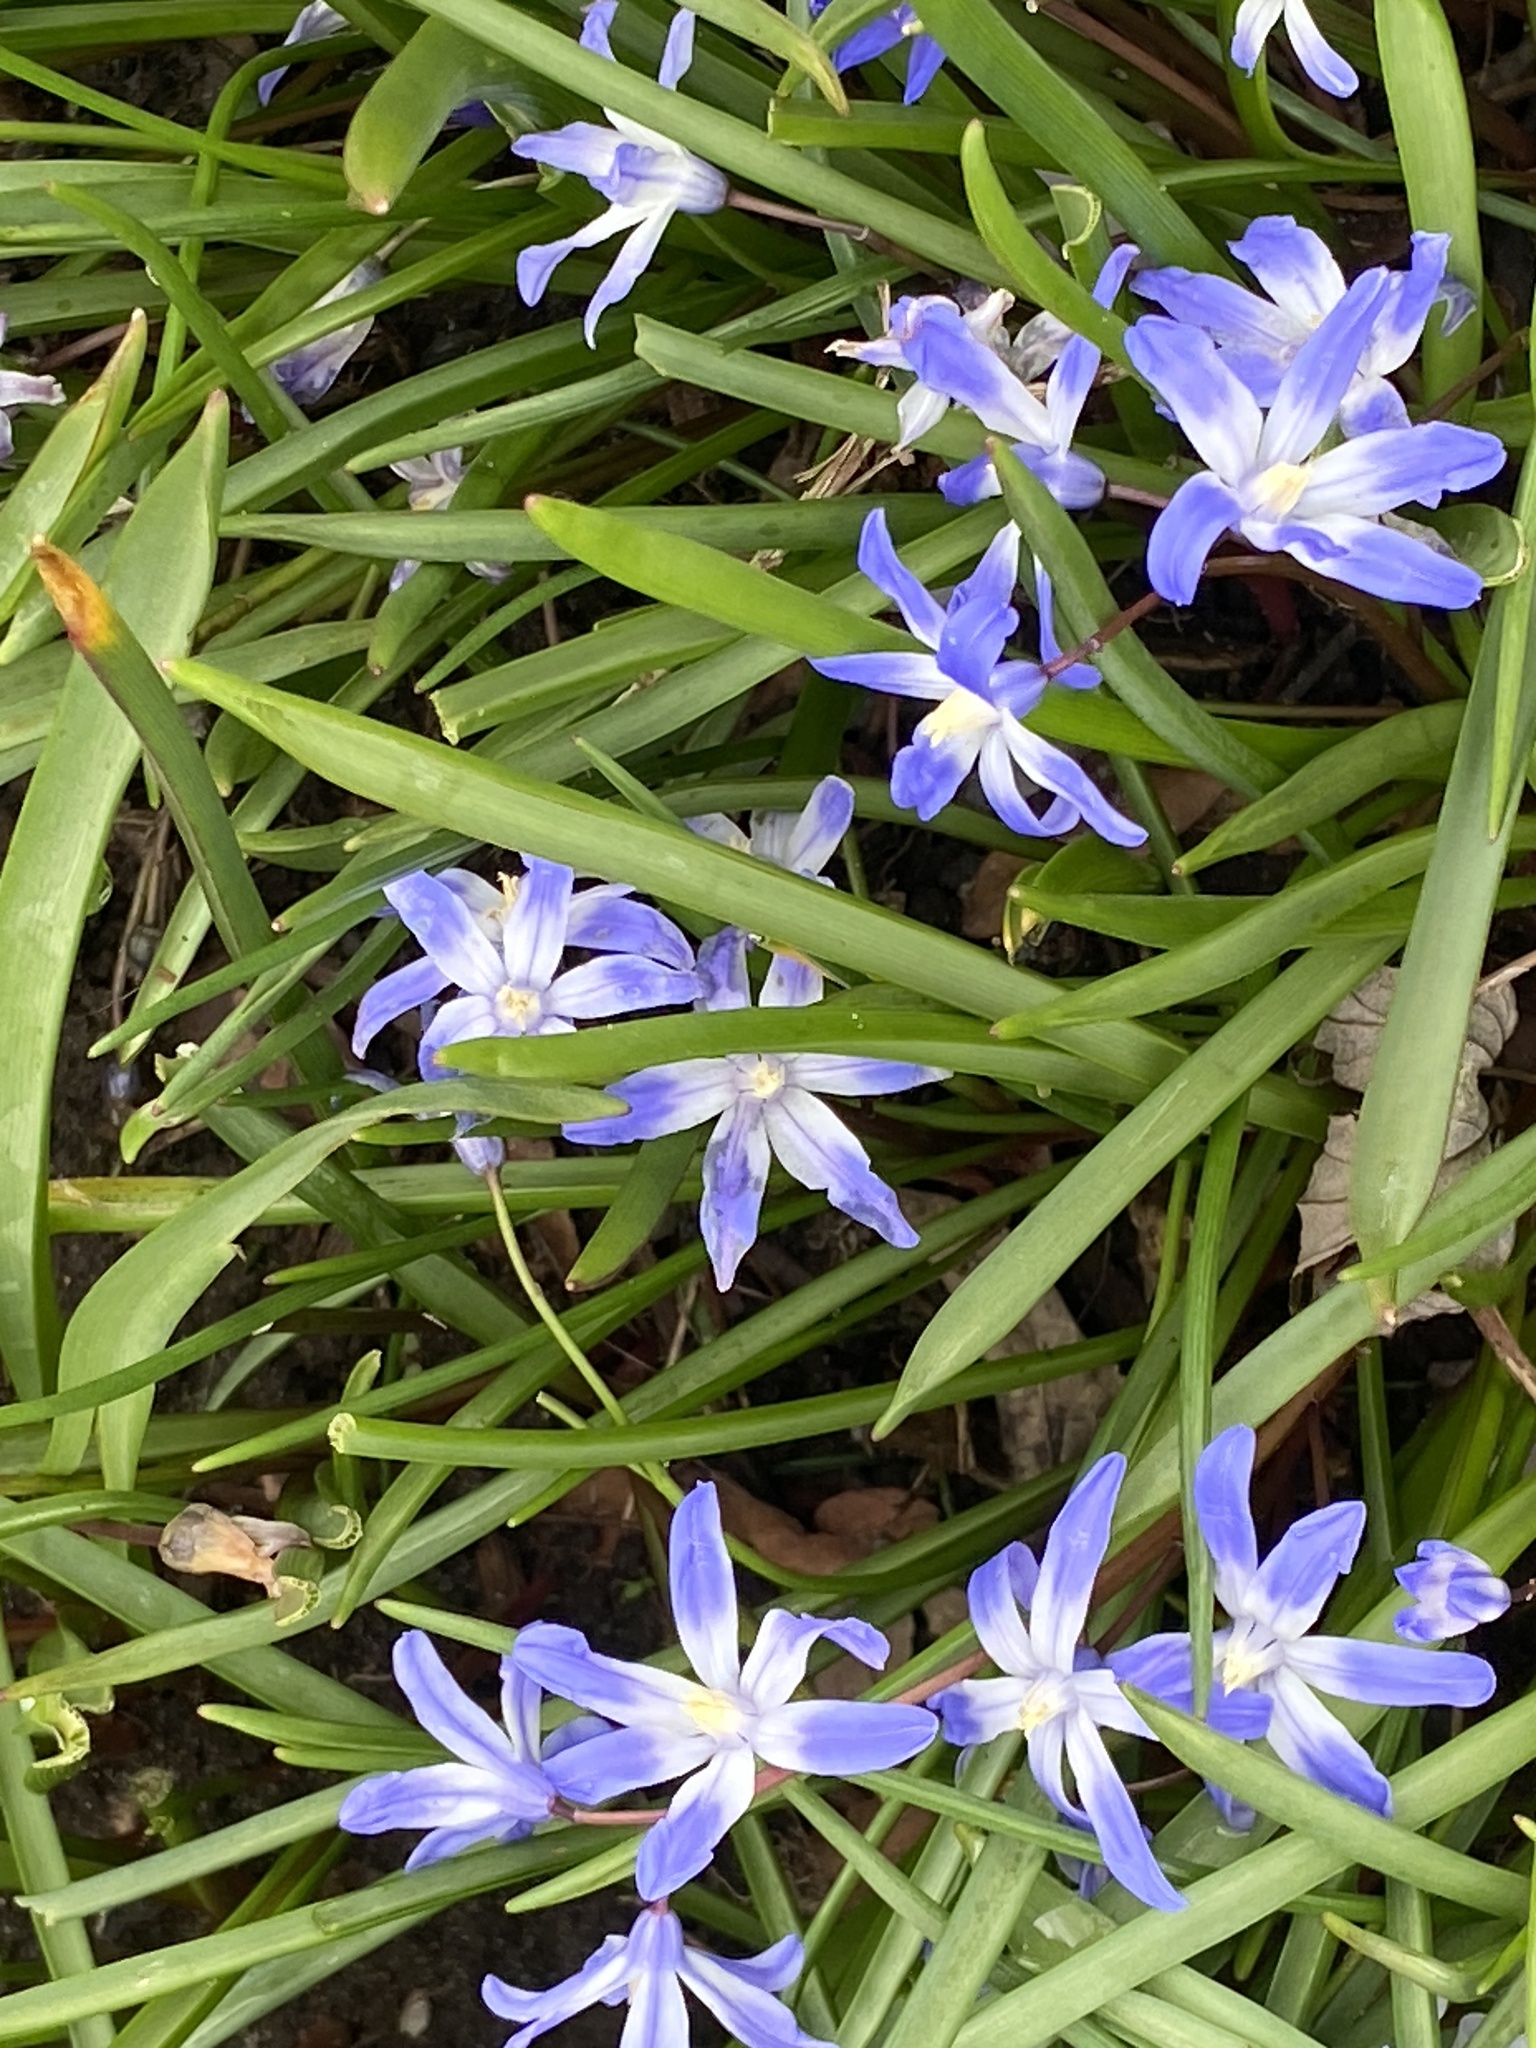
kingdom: Plantae
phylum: Tracheophyta
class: Liliopsida
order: Asparagales
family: Asparagaceae
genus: Scilla
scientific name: Scilla forbesii
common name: Glory-of-the-snow
